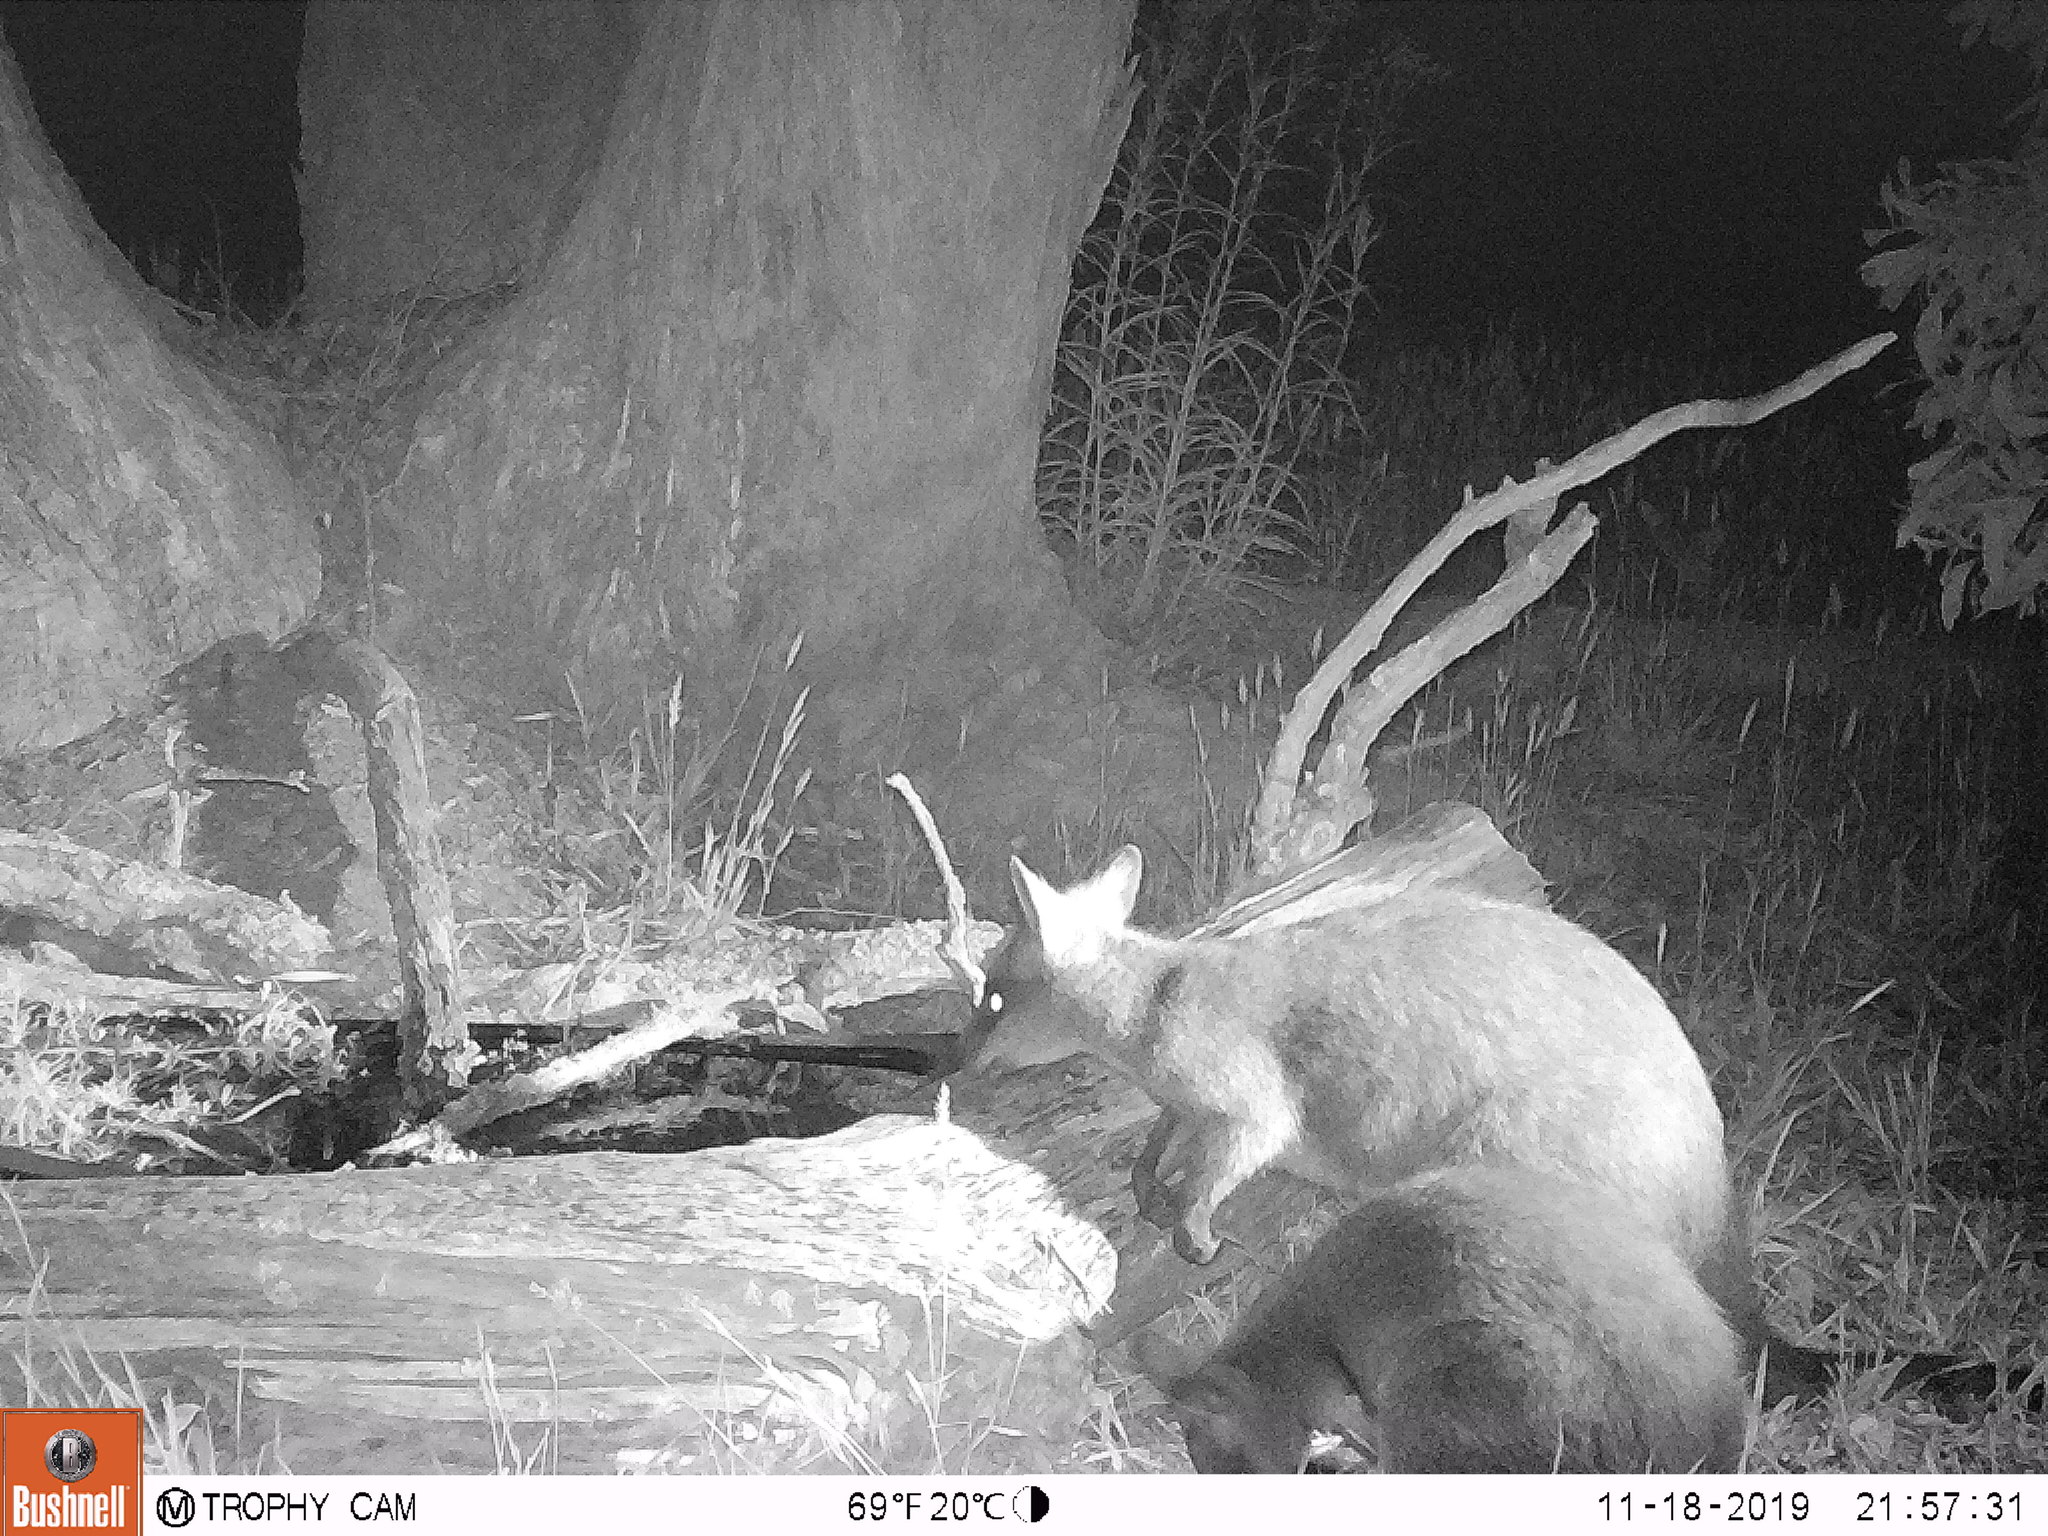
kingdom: Animalia
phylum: Chordata
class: Mammalia
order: Diprotodontia
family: Macropodidae
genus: Wallabia
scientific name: Wallabia bicolor
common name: Swamp wallaby
